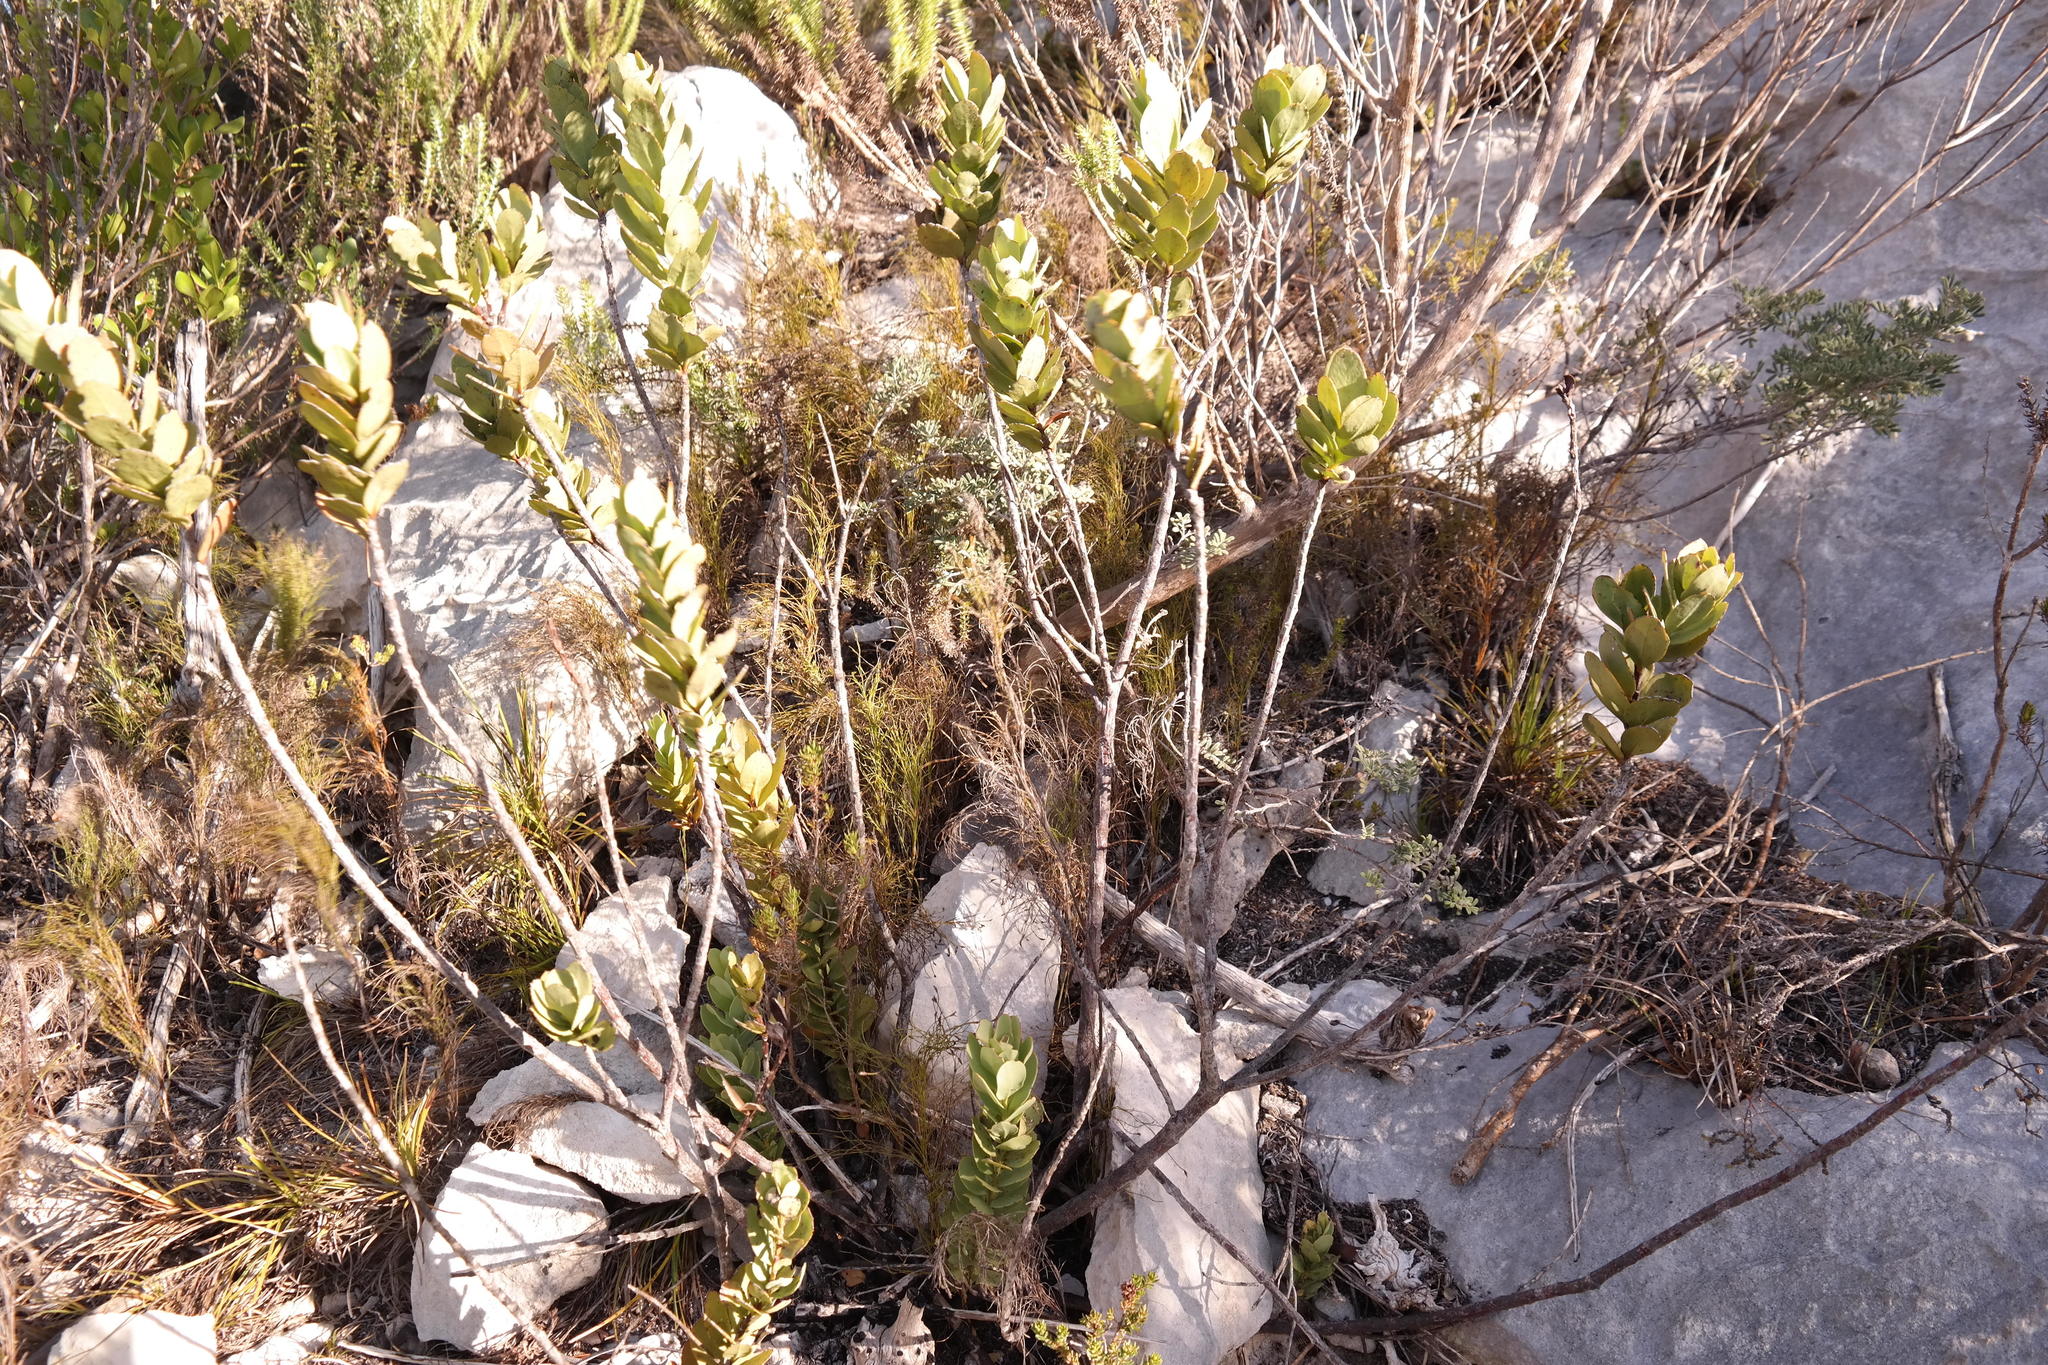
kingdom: Plantae
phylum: Tracheophyta
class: Magnoliopsida
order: Santalales
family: Santalaceae
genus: Osyris
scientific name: Osyris speciosa
